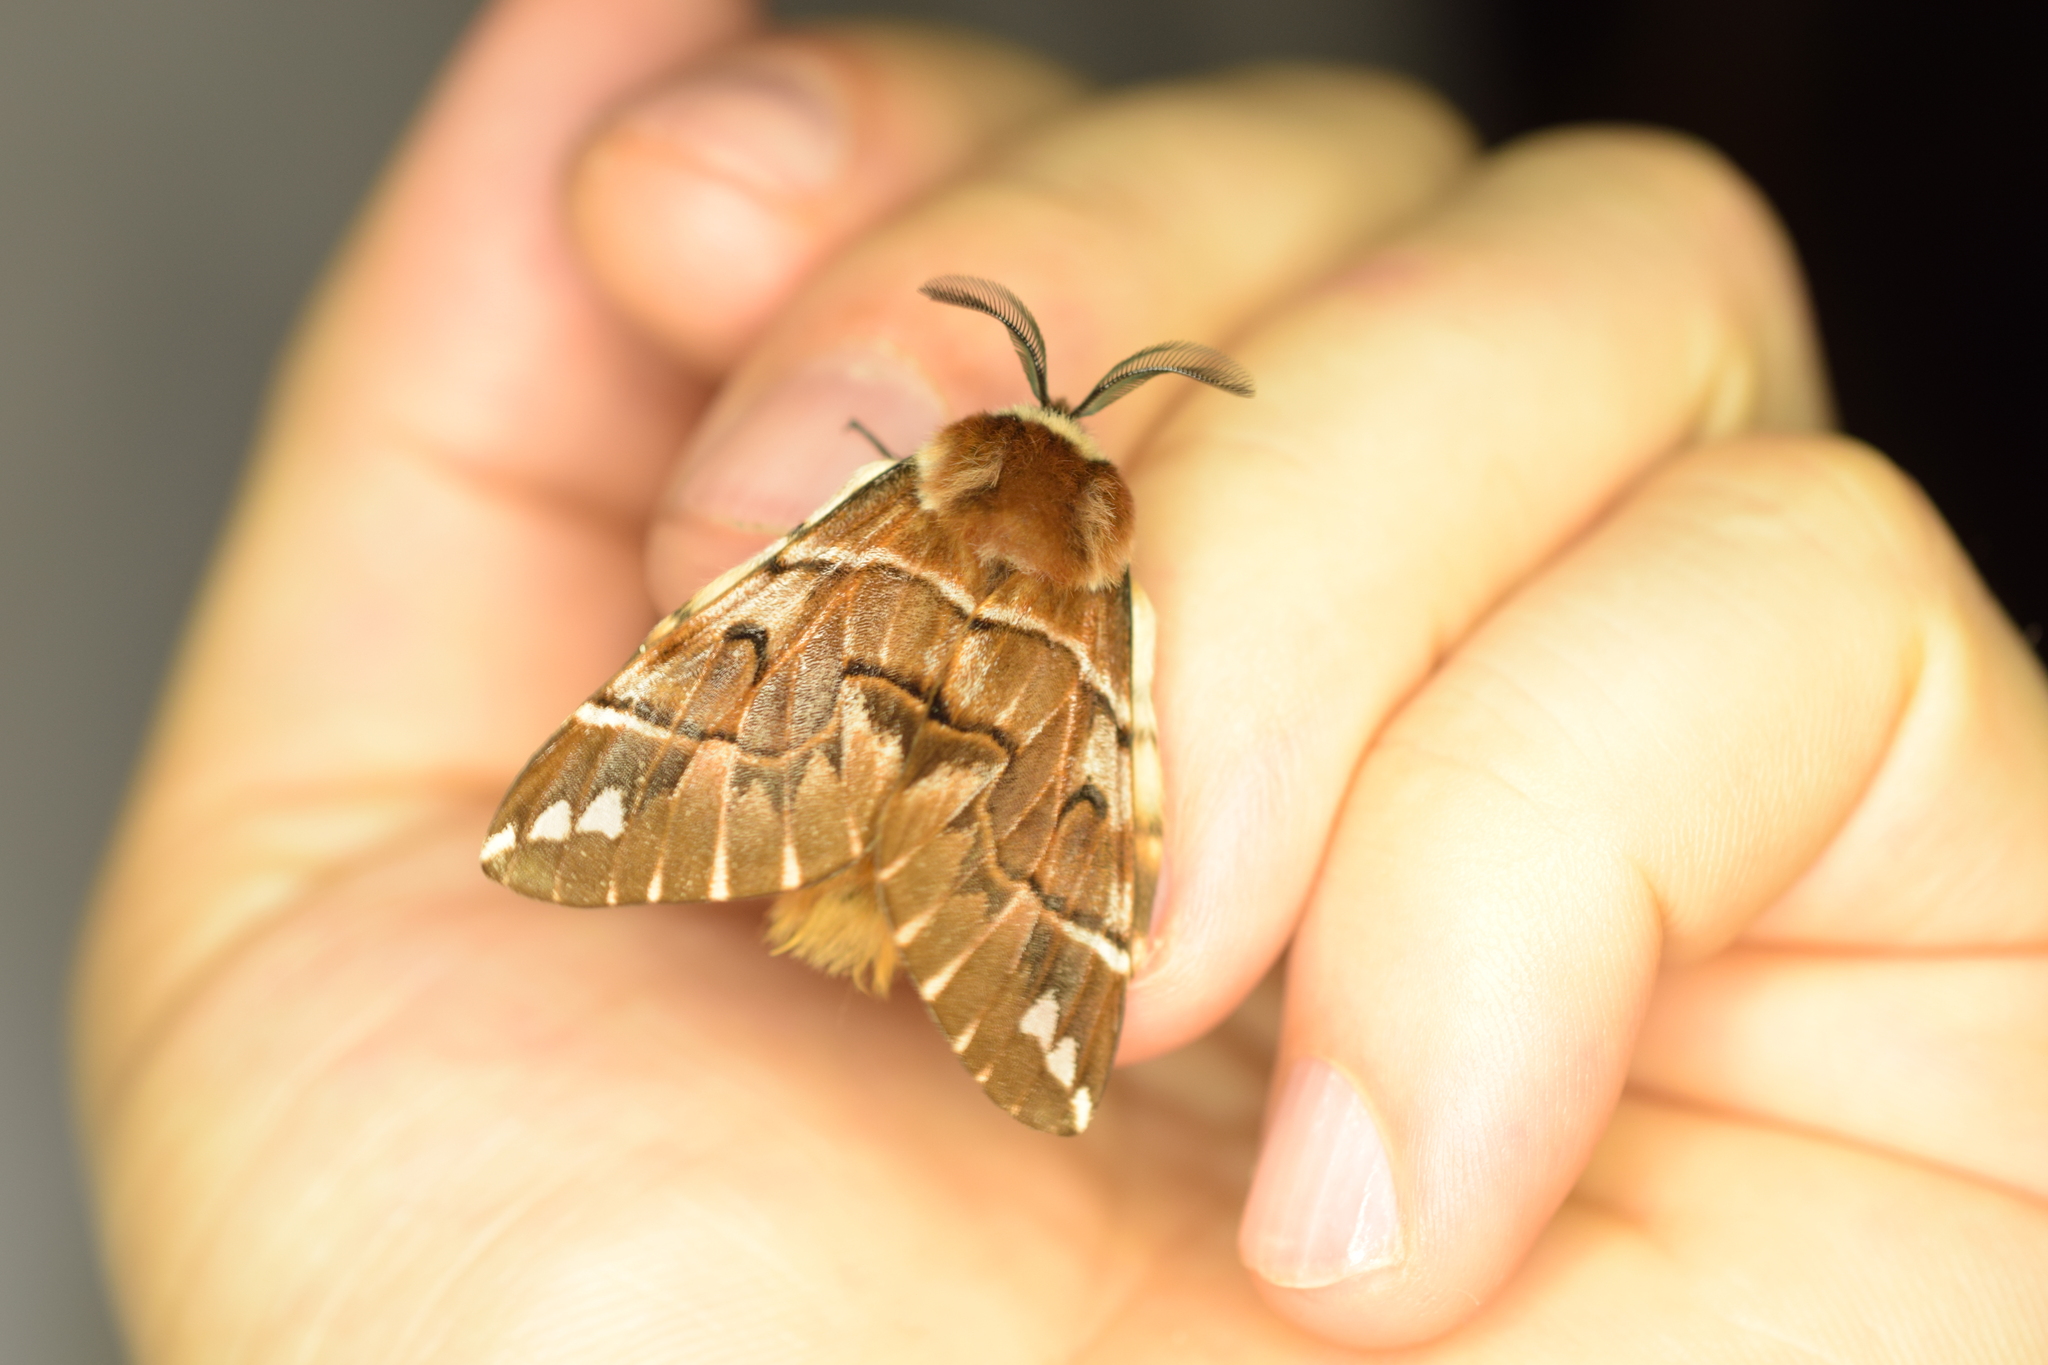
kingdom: Animalia
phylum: Arthropoda
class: Insecta
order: Lepidoptera
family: Endromidae
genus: Endromis
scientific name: Endromis versicolora
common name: Kentish glory
